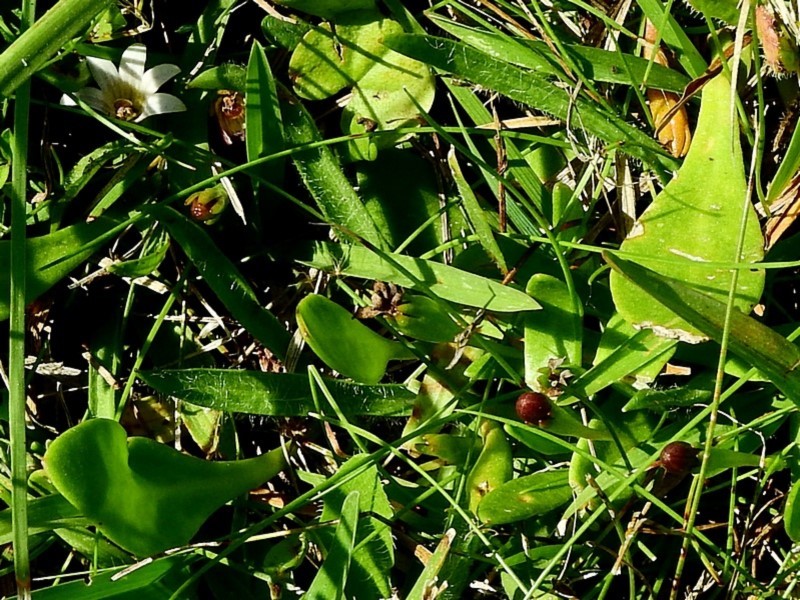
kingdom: Plantae
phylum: Tracheophyta
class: Magnoliopsida
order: Asterales
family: Goodeniaceae
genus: Goodenia
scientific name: Goodenia radicans
